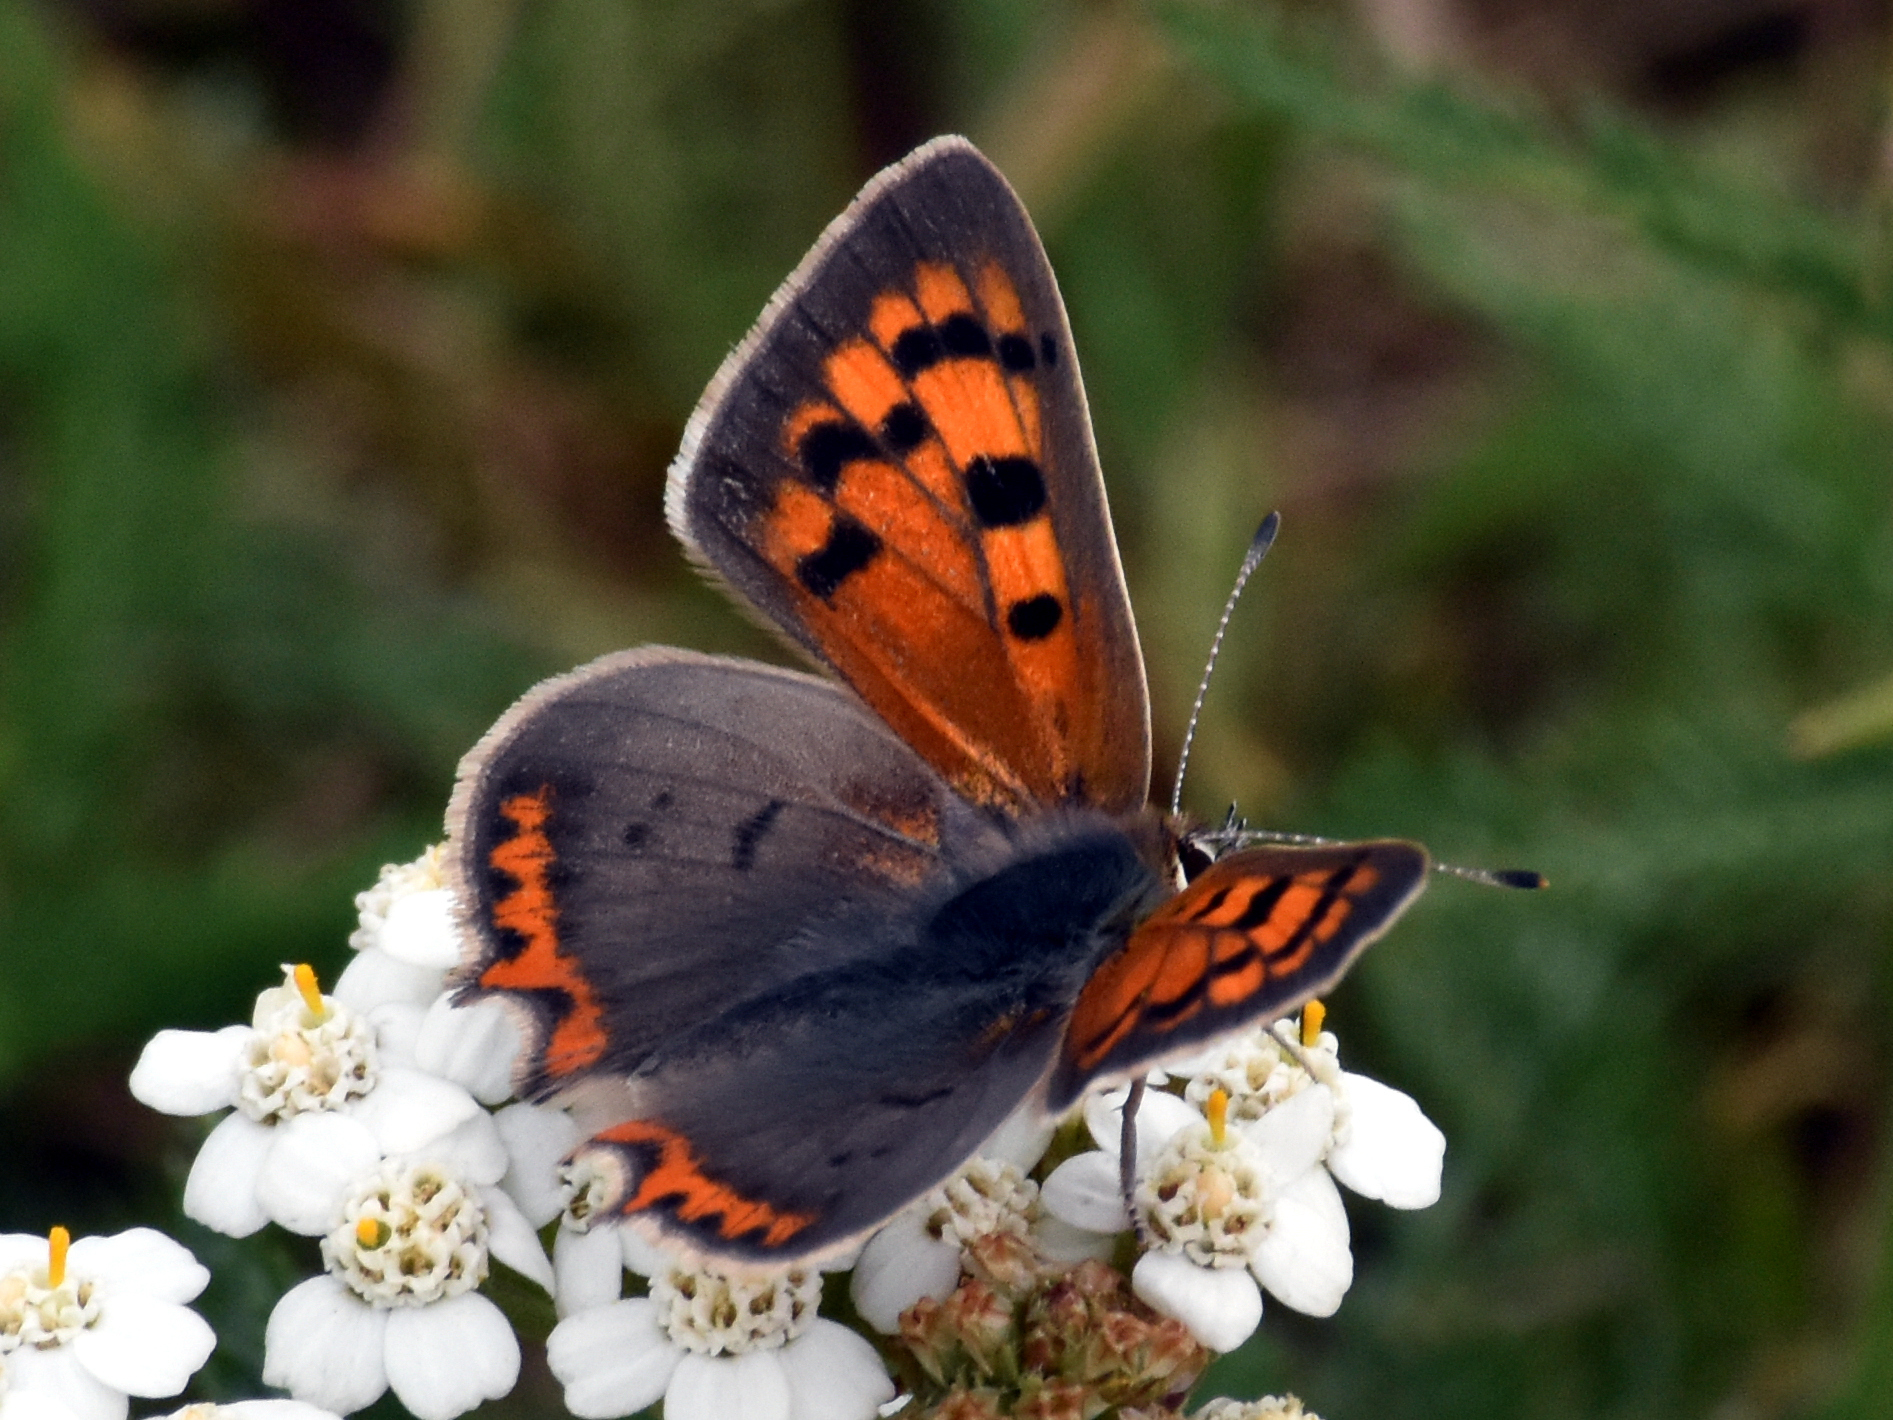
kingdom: Animalia
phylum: Arthropoda
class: Insecta
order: Lepidoptera
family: Lycaenidae
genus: Lycaena
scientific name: Lycaena phlaeas
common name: Small copper
